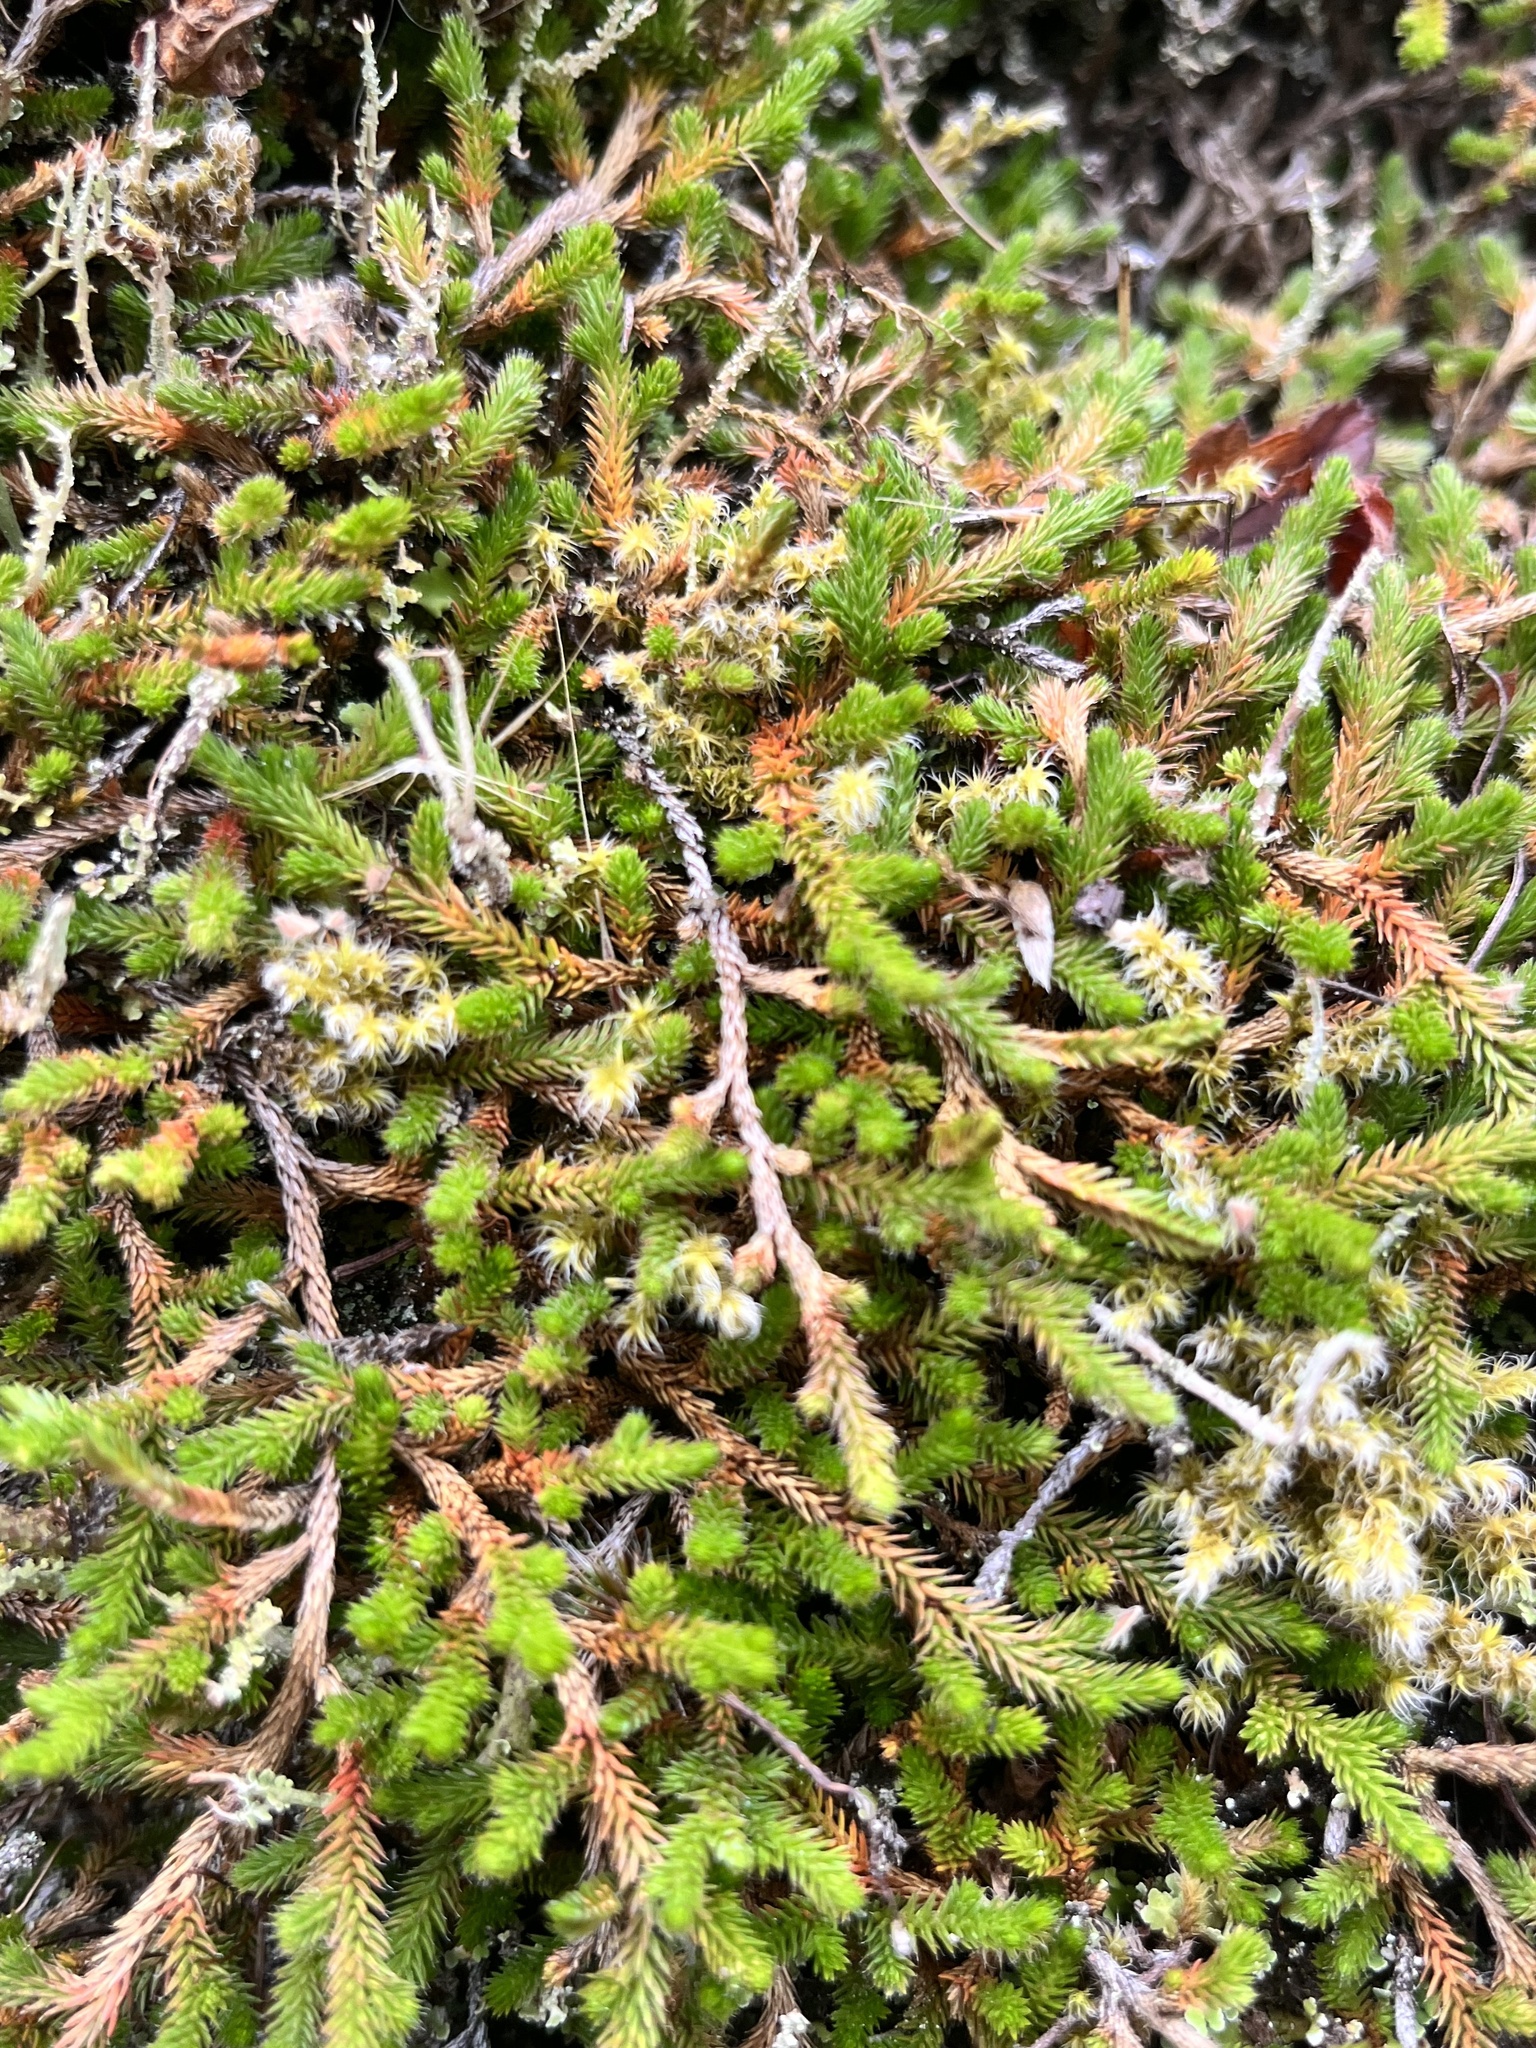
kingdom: Plantae
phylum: Tracheophyta
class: Lycopodiopsida
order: Selaginellales
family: Selaginellaceae
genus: Selaginella
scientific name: Selaginella wallacei
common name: Wallace's selaginella
